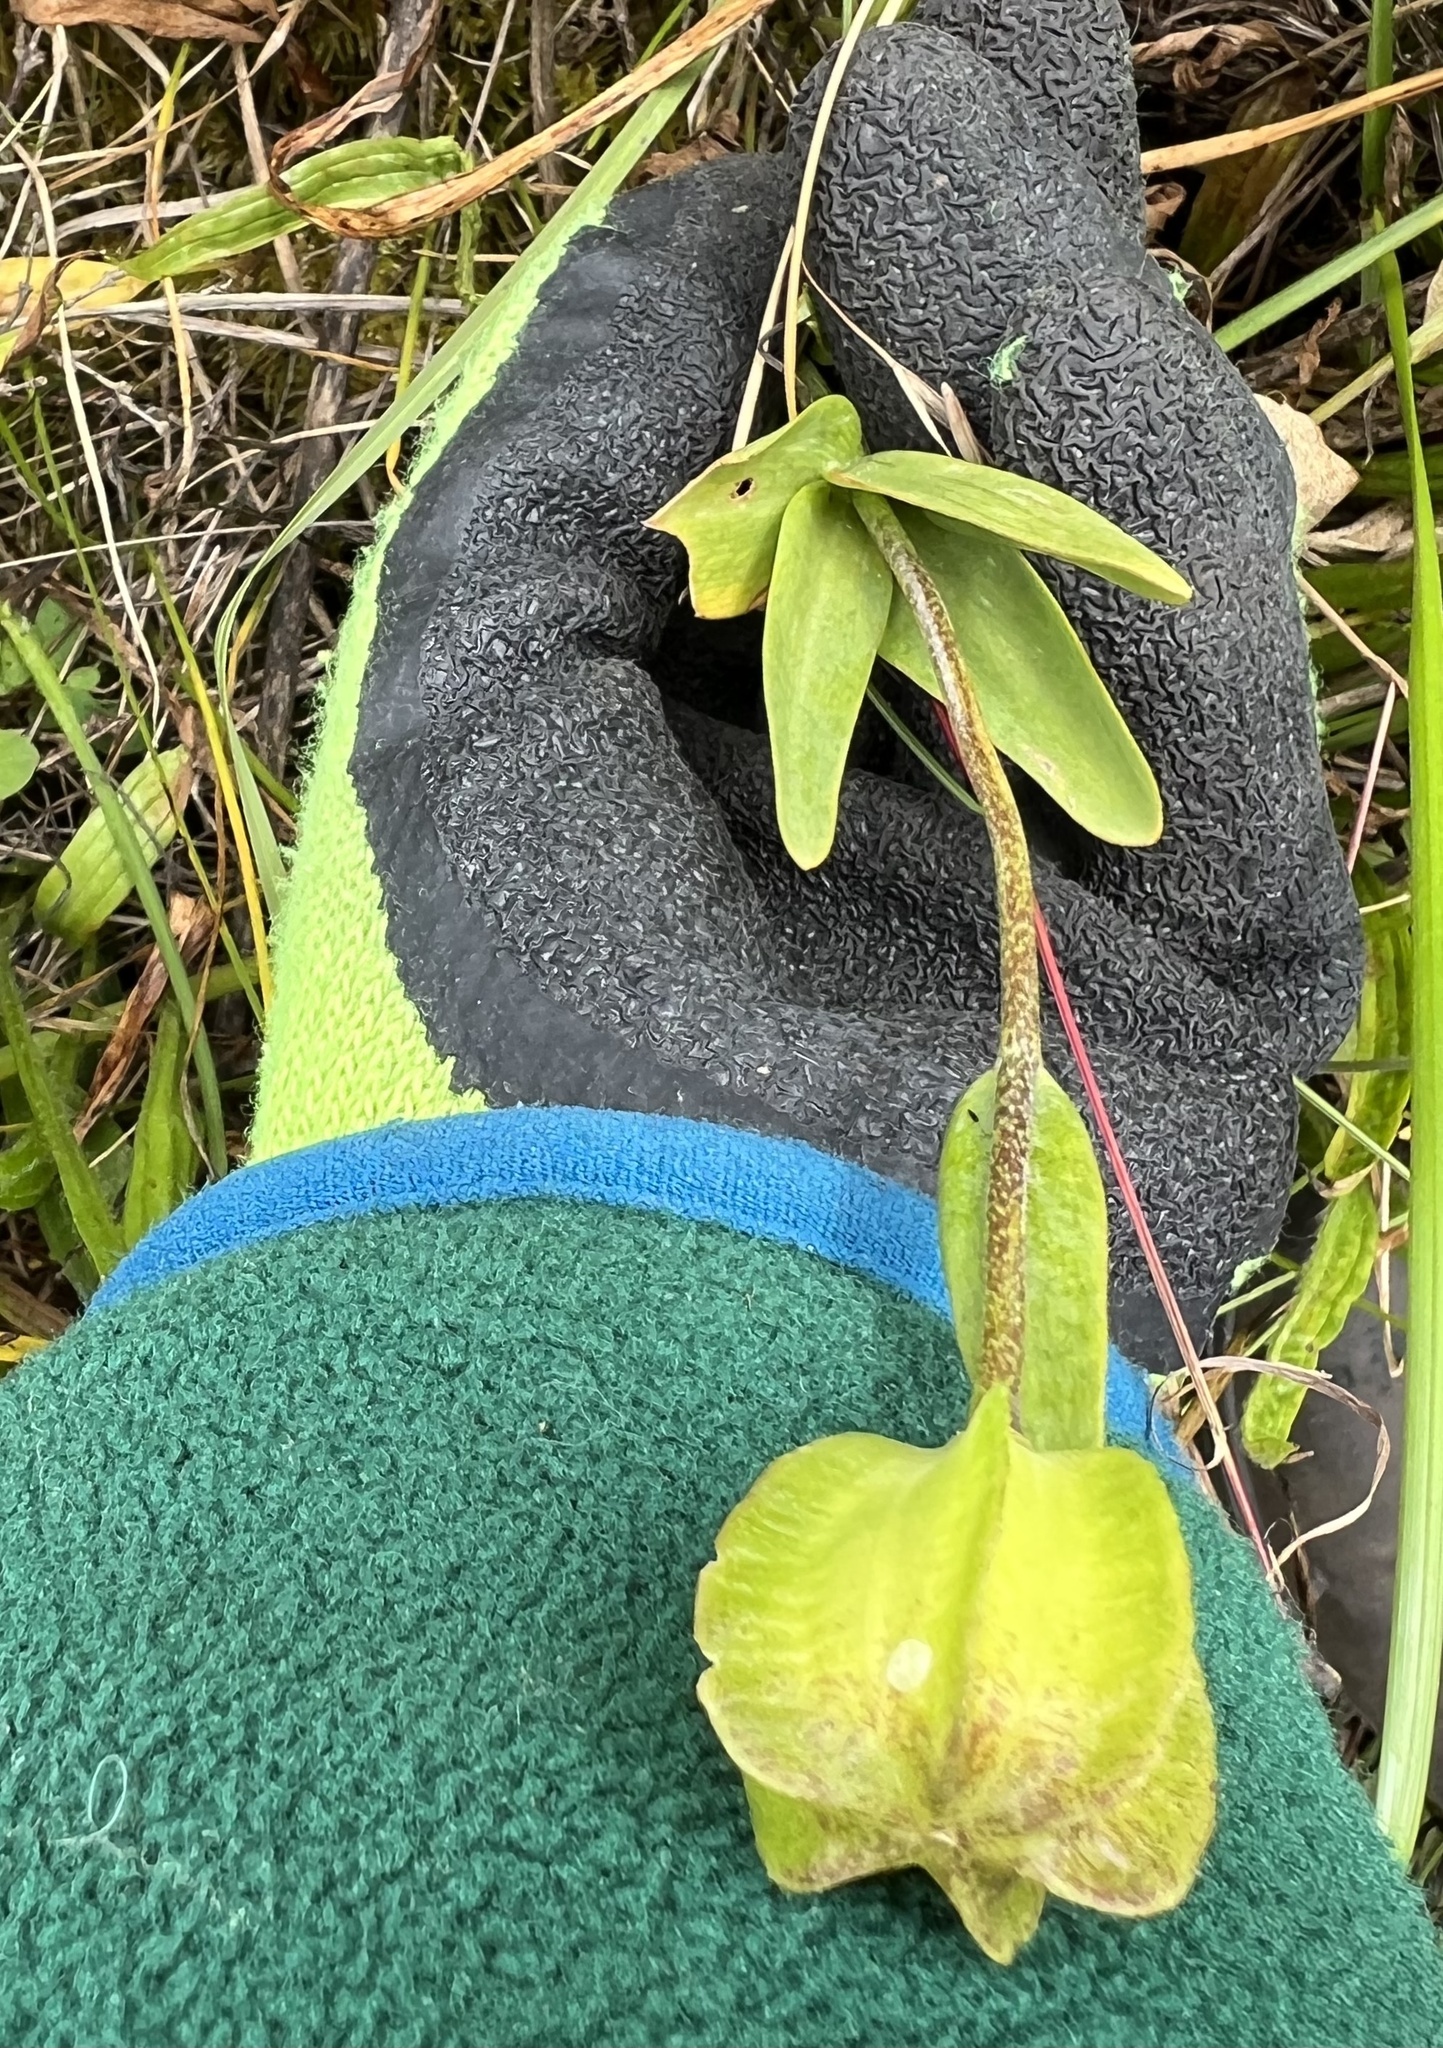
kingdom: Plantae
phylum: Tracheophyta
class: Liliopsida
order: Liliales
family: Liliaceae
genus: Fritillaria
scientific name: Fritillaria affinis
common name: Ojai fritillary
